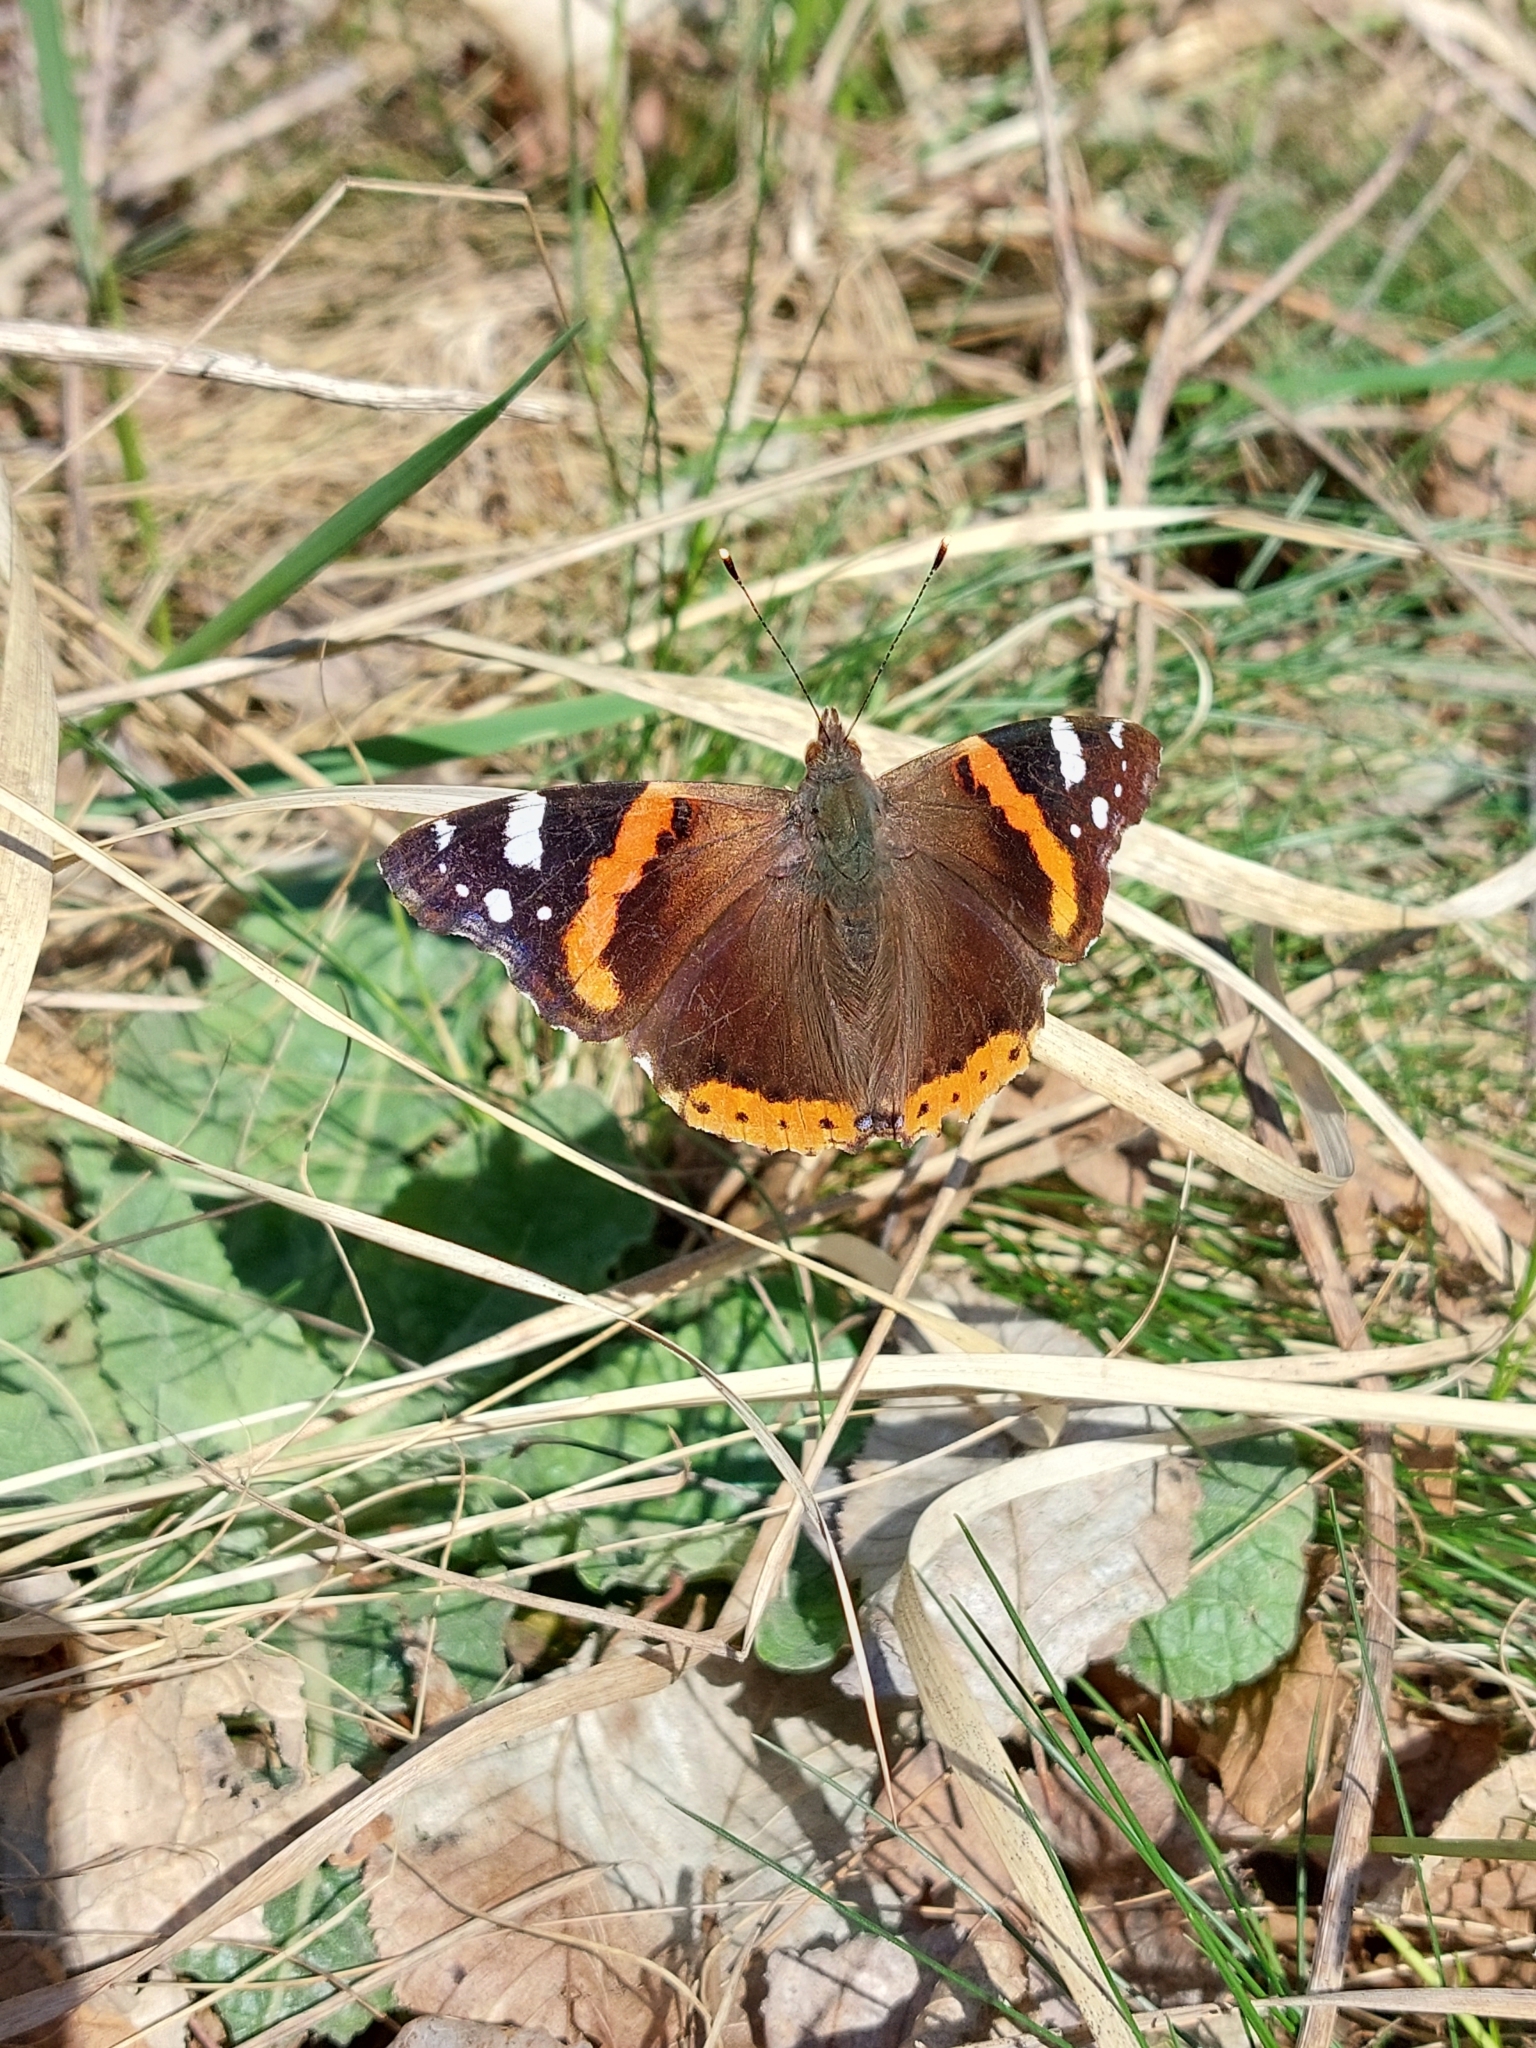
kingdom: Animalia
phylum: Arthropoda
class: Insecta
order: Lepidoptera
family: Nymphalidae
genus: Vanessa
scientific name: Vanessa atalanta
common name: Red admiral
